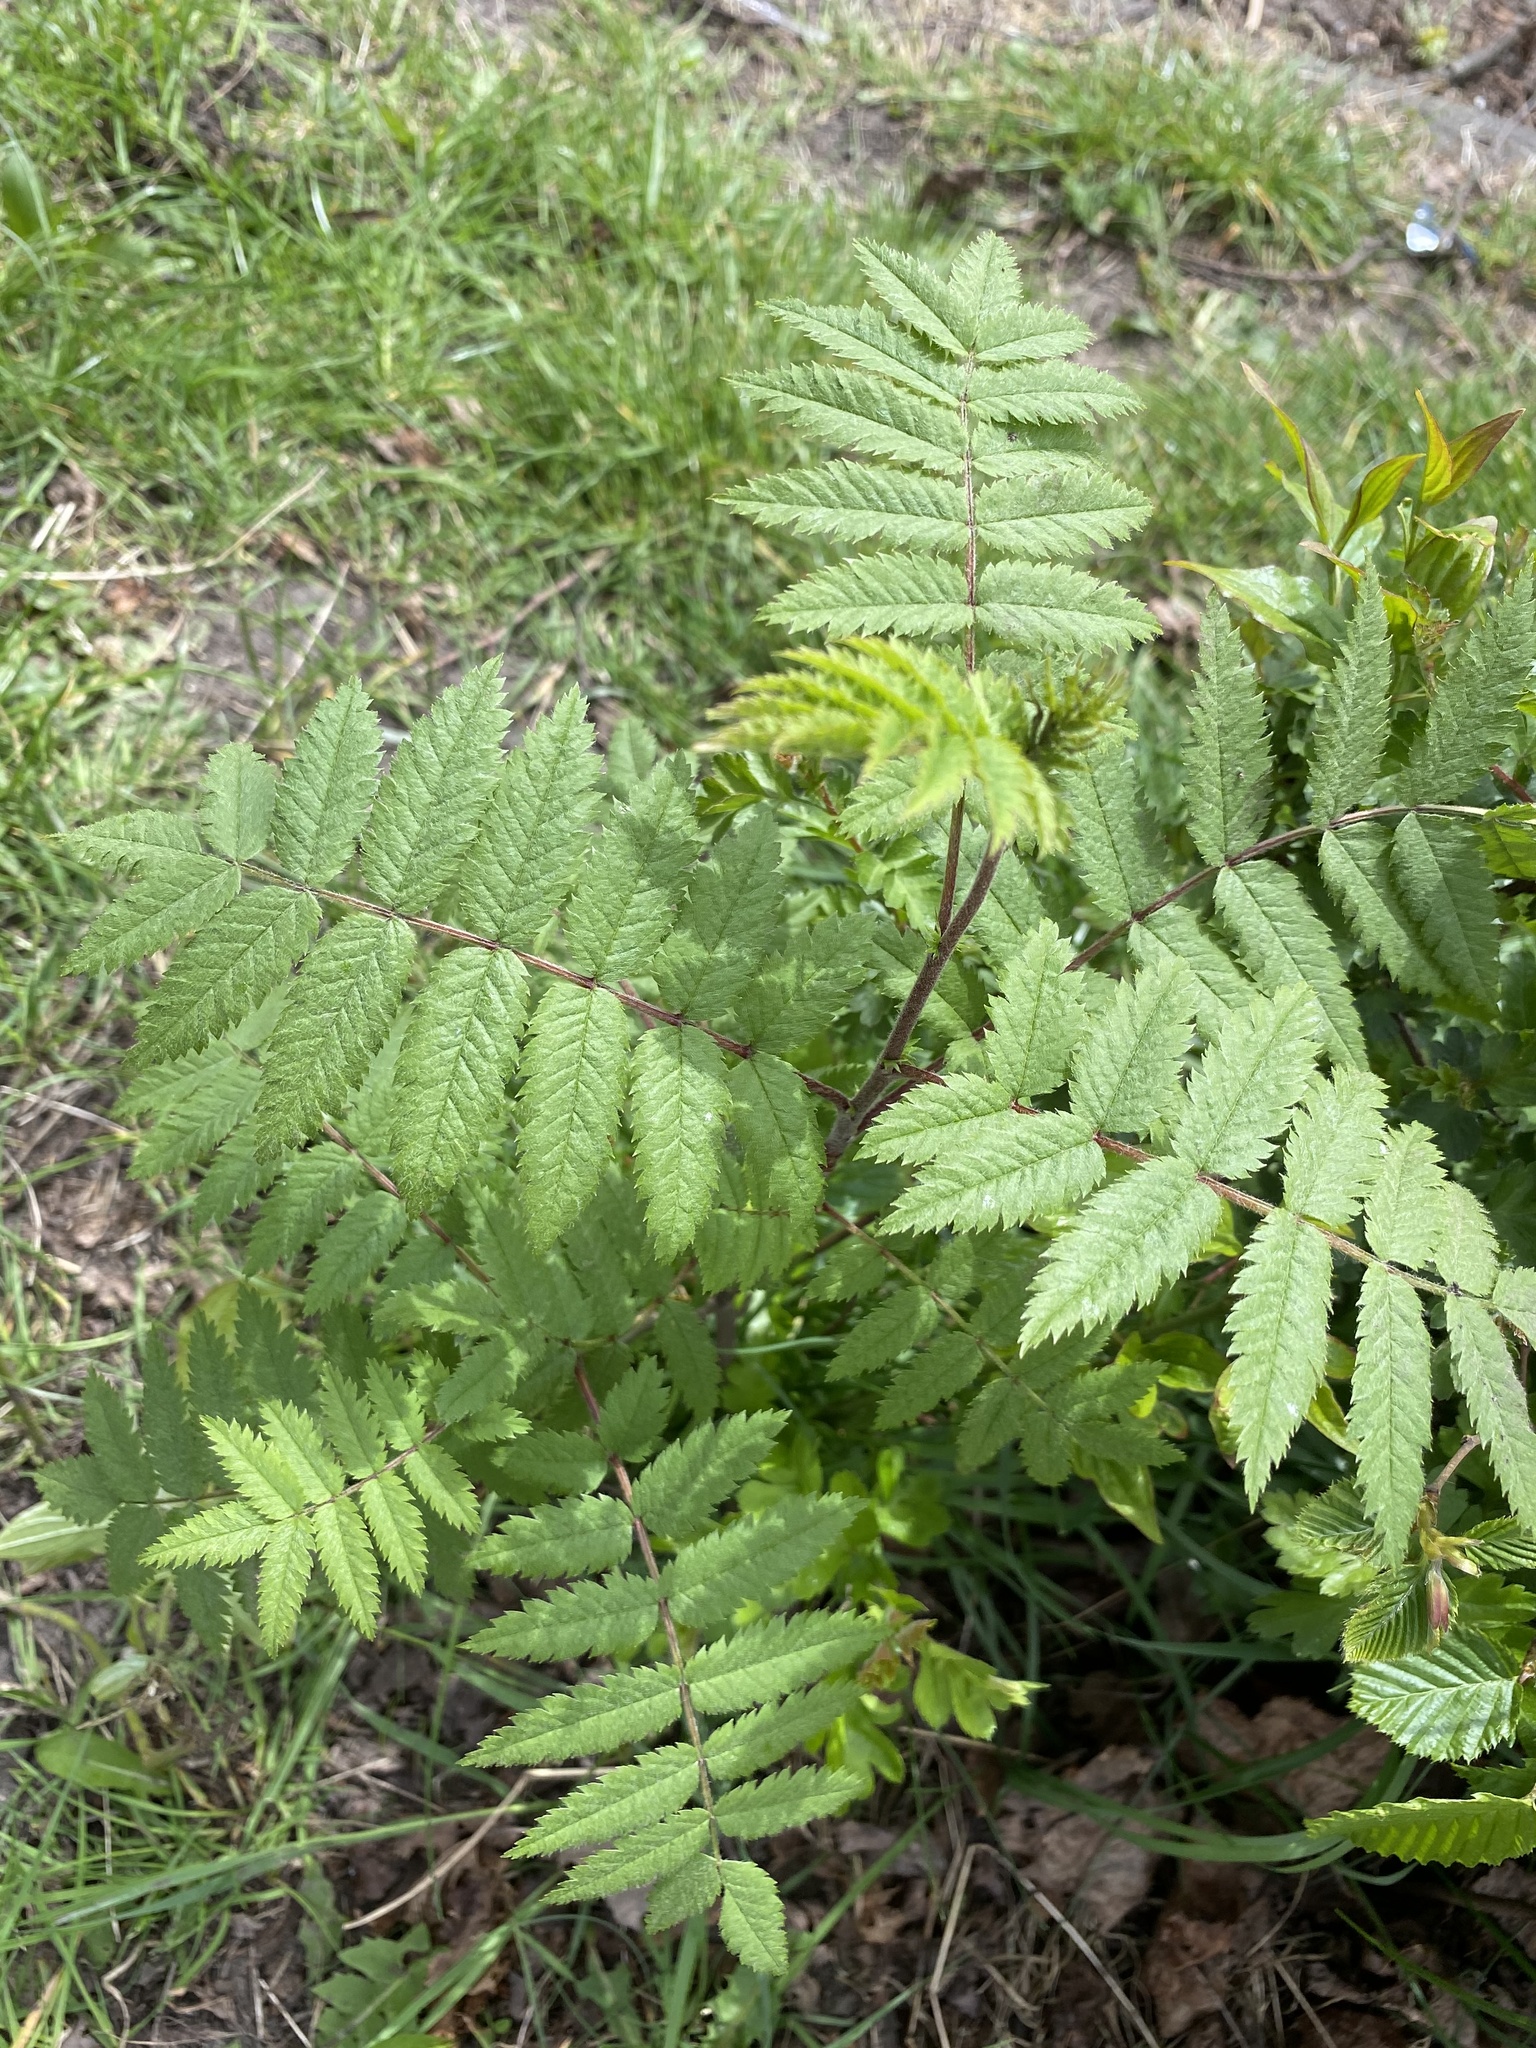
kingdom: Plantae
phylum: Tracheophyta
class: Magnoliopsida
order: Rosales
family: Rosaceae
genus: Sorbus
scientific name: Sorbus aucuparia
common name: Rowan
